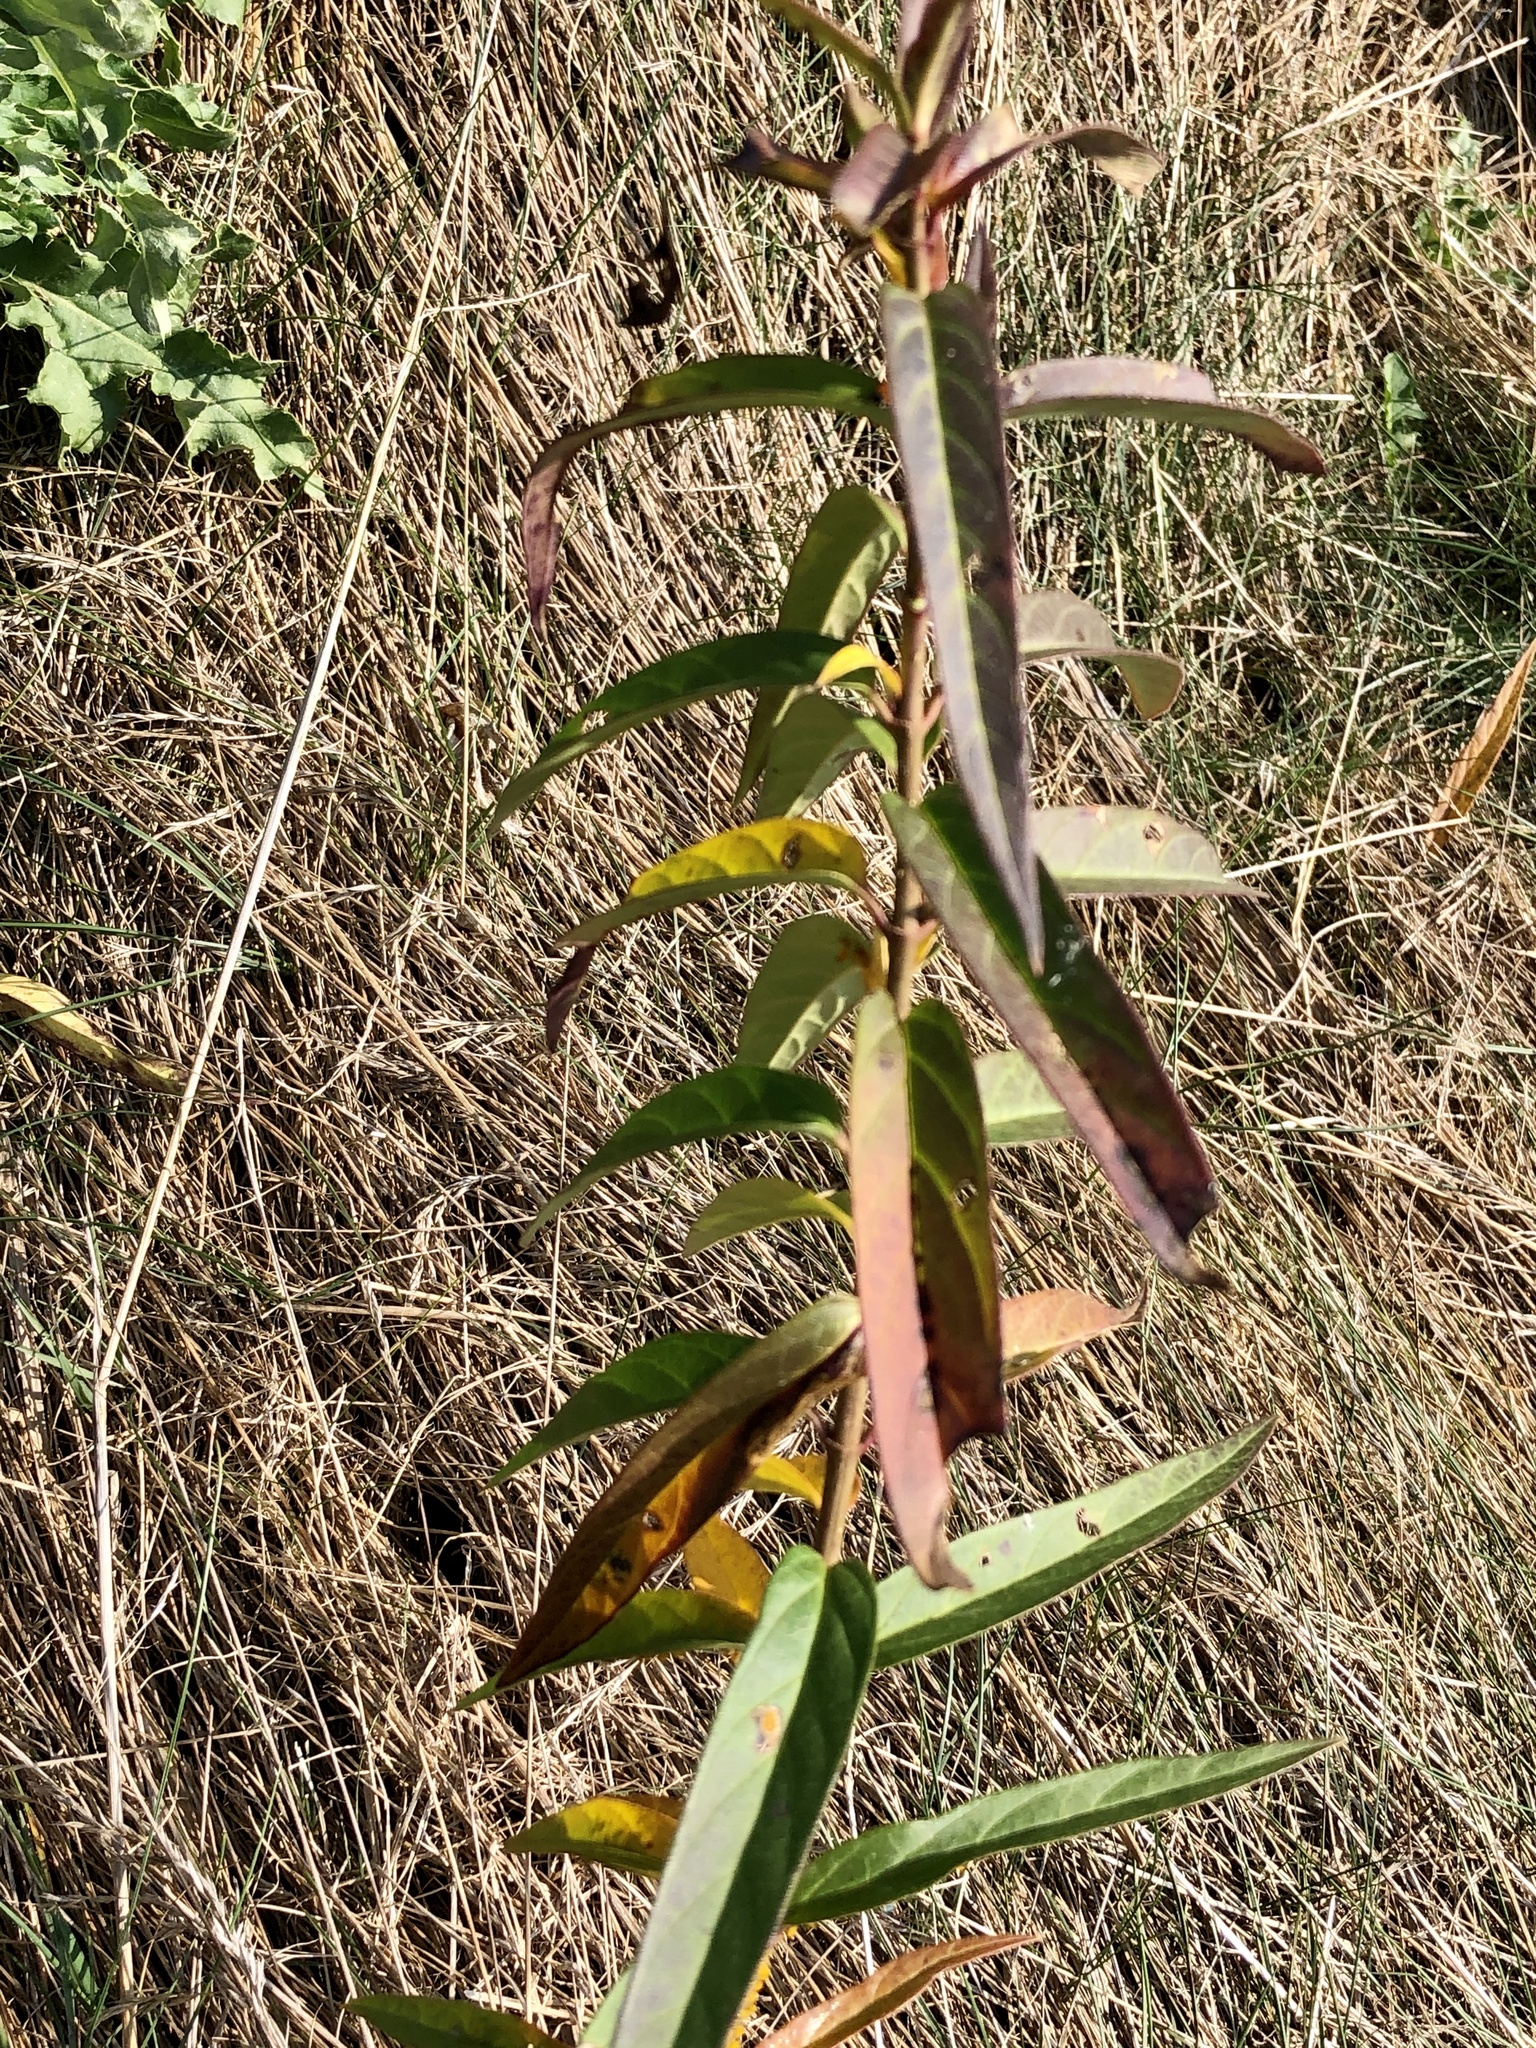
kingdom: Plantae
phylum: Tracheophyta
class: Magnoliopsida
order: Gentianales
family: Apocynaceae
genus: Asclepias
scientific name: Asclepias incarnata
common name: Swamp milkweed
